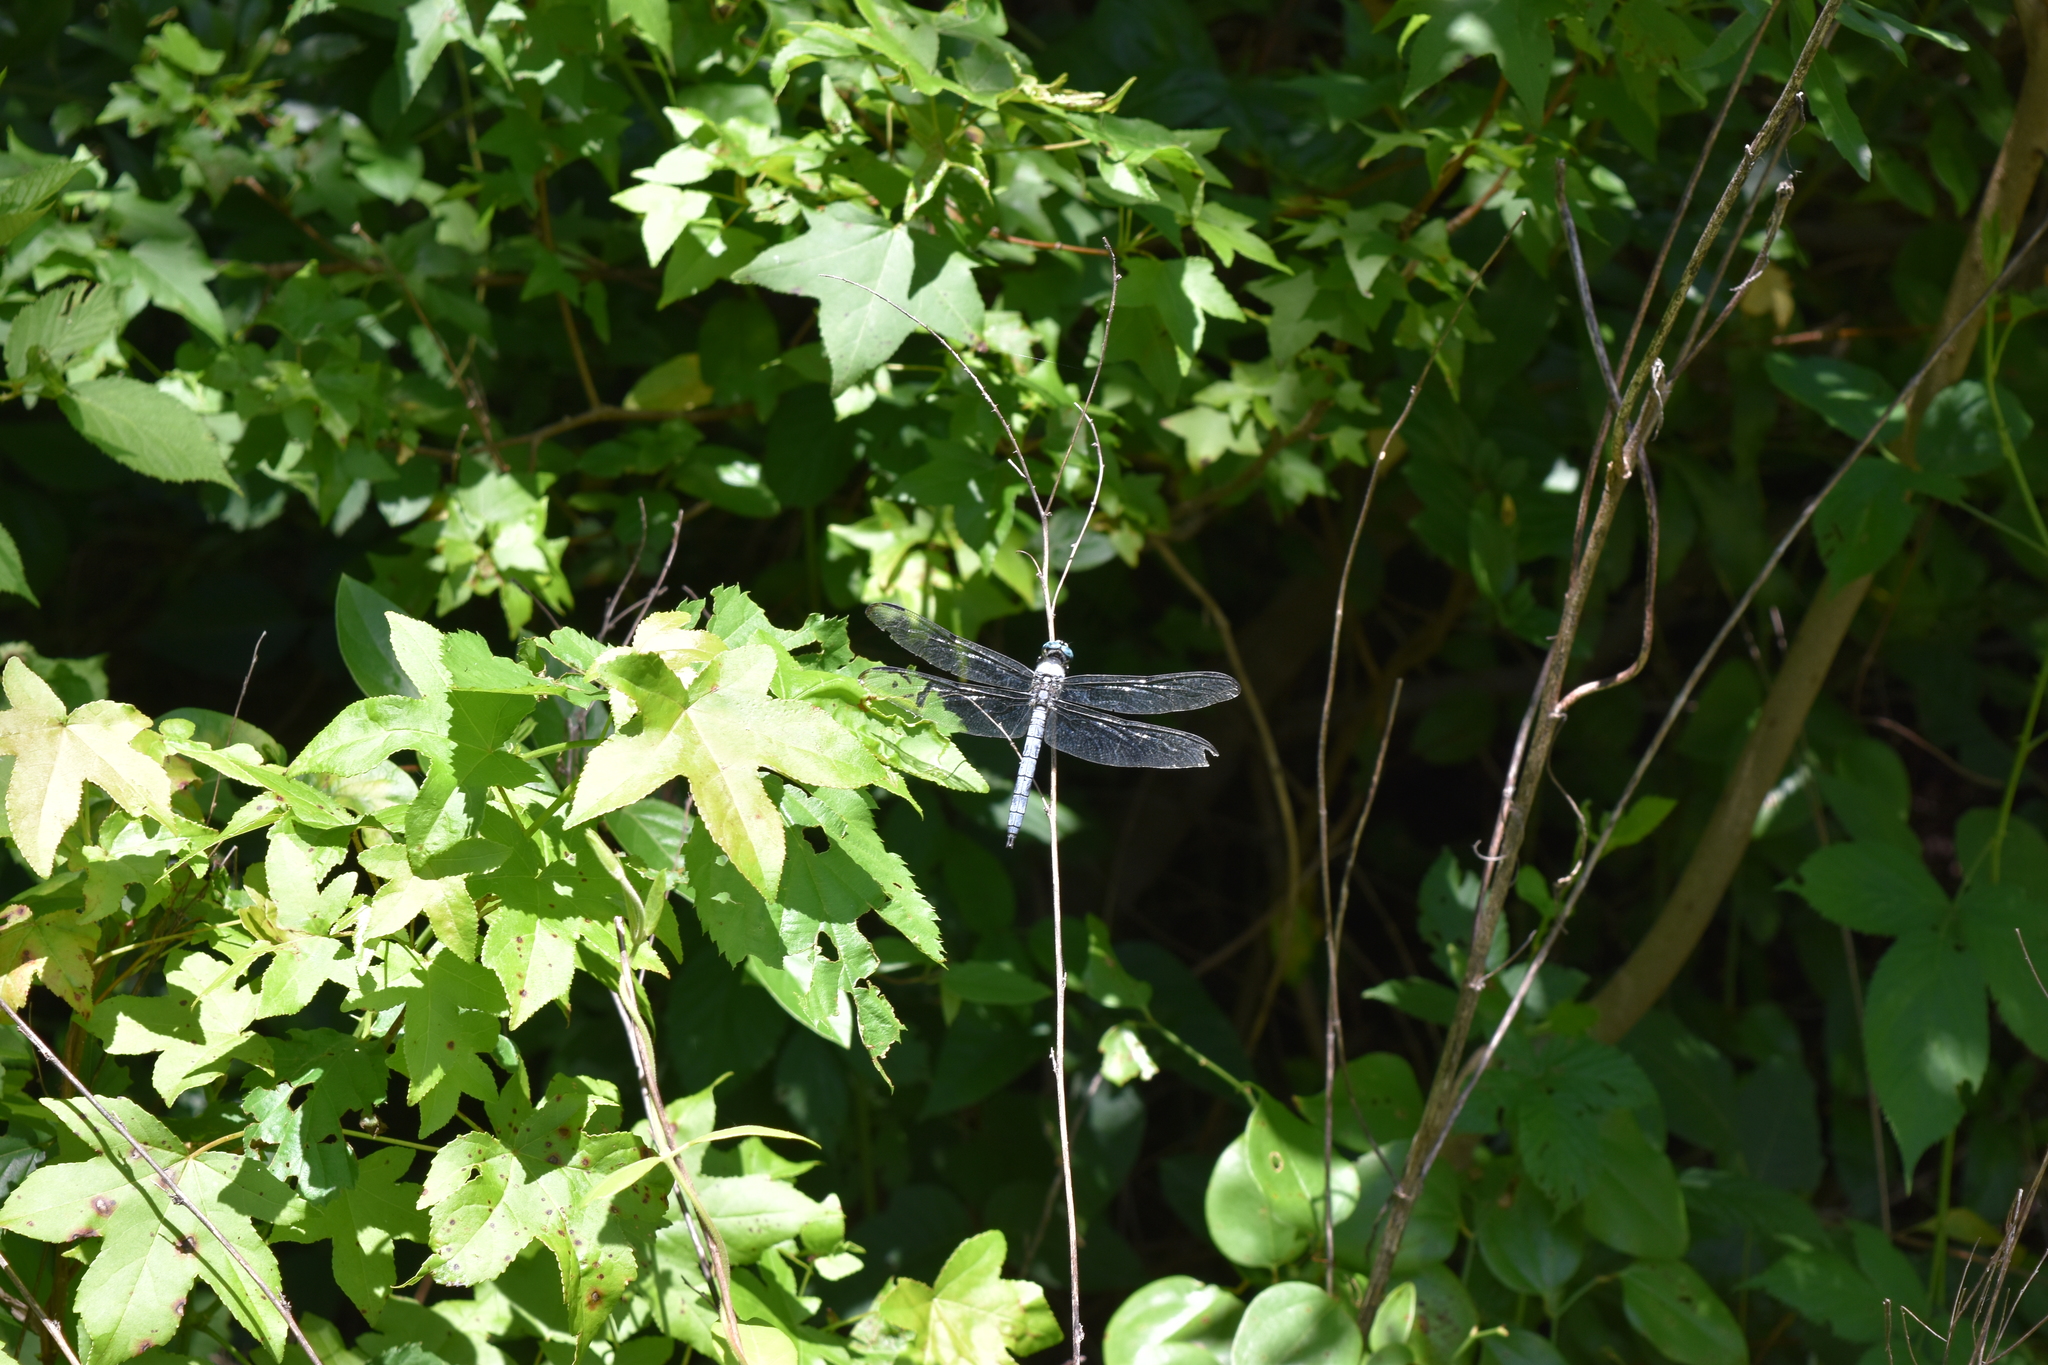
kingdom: Animalia
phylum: Arthropoda
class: Insecta
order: Odonata
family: Libellulidae
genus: Libellula
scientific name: Libellula vibrans
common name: Great blue skimmer
